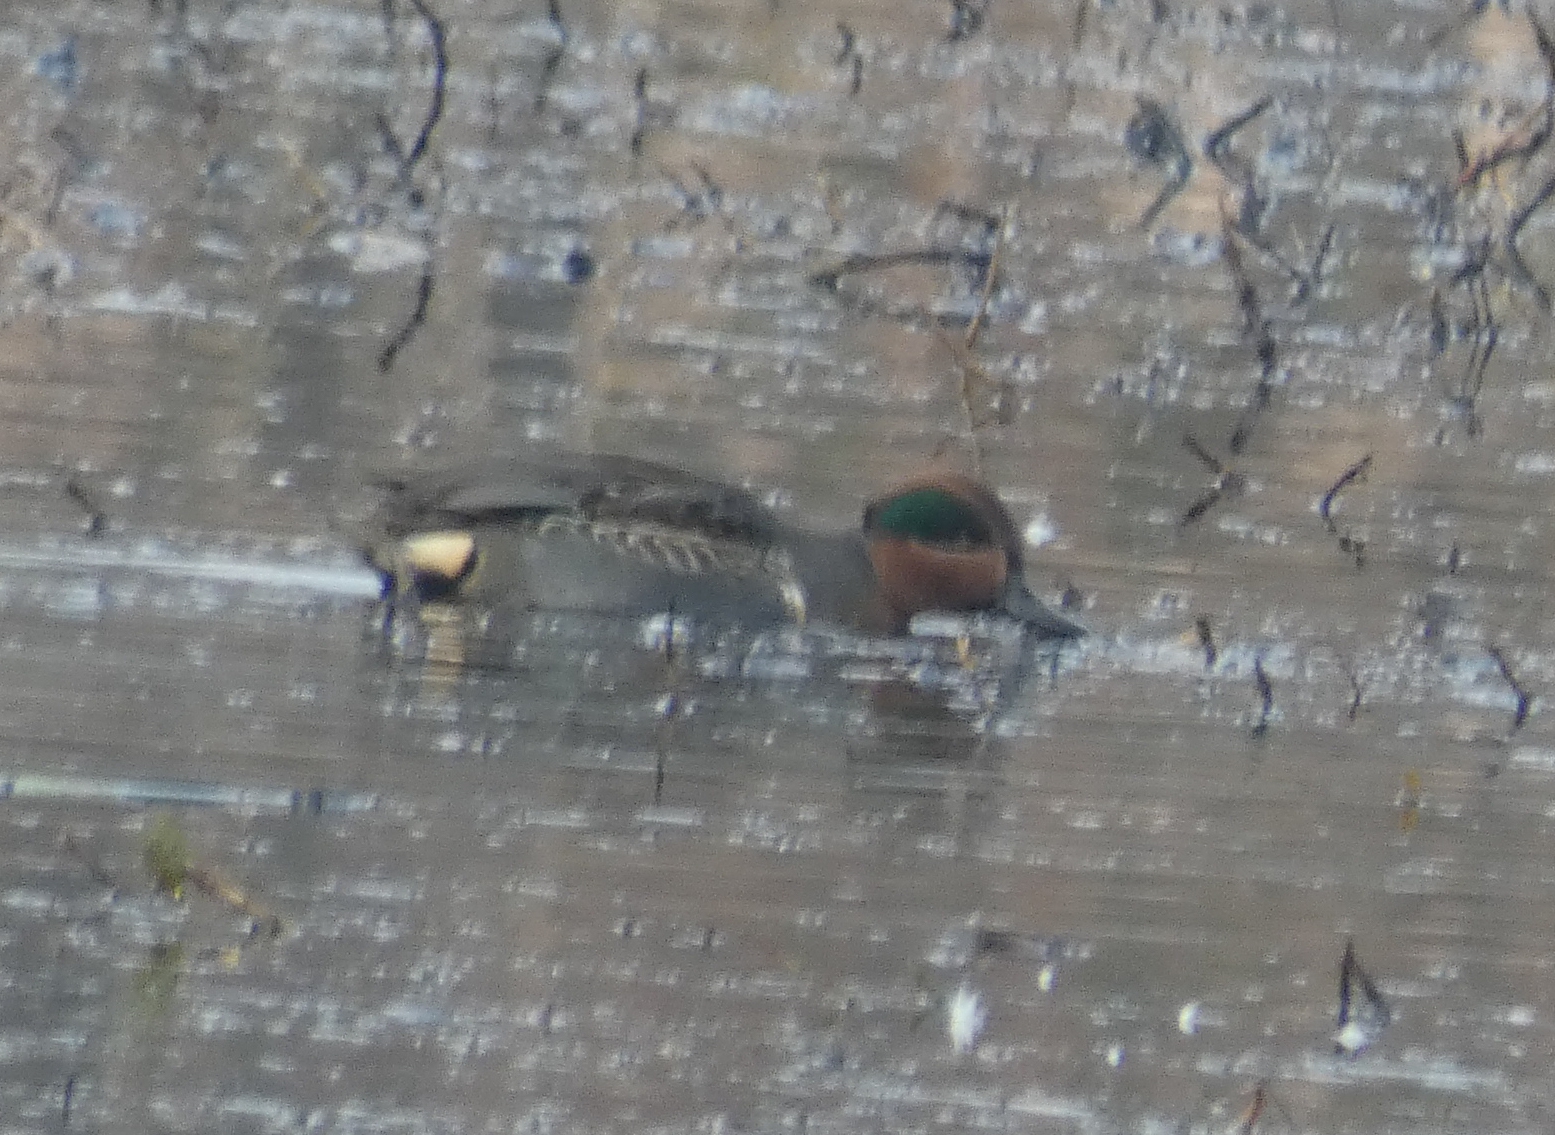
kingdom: Animalia
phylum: Chordata
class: Aves
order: Anseriformes
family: Anatidae
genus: Anas
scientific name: Anas crecca
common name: Eurasian teal
